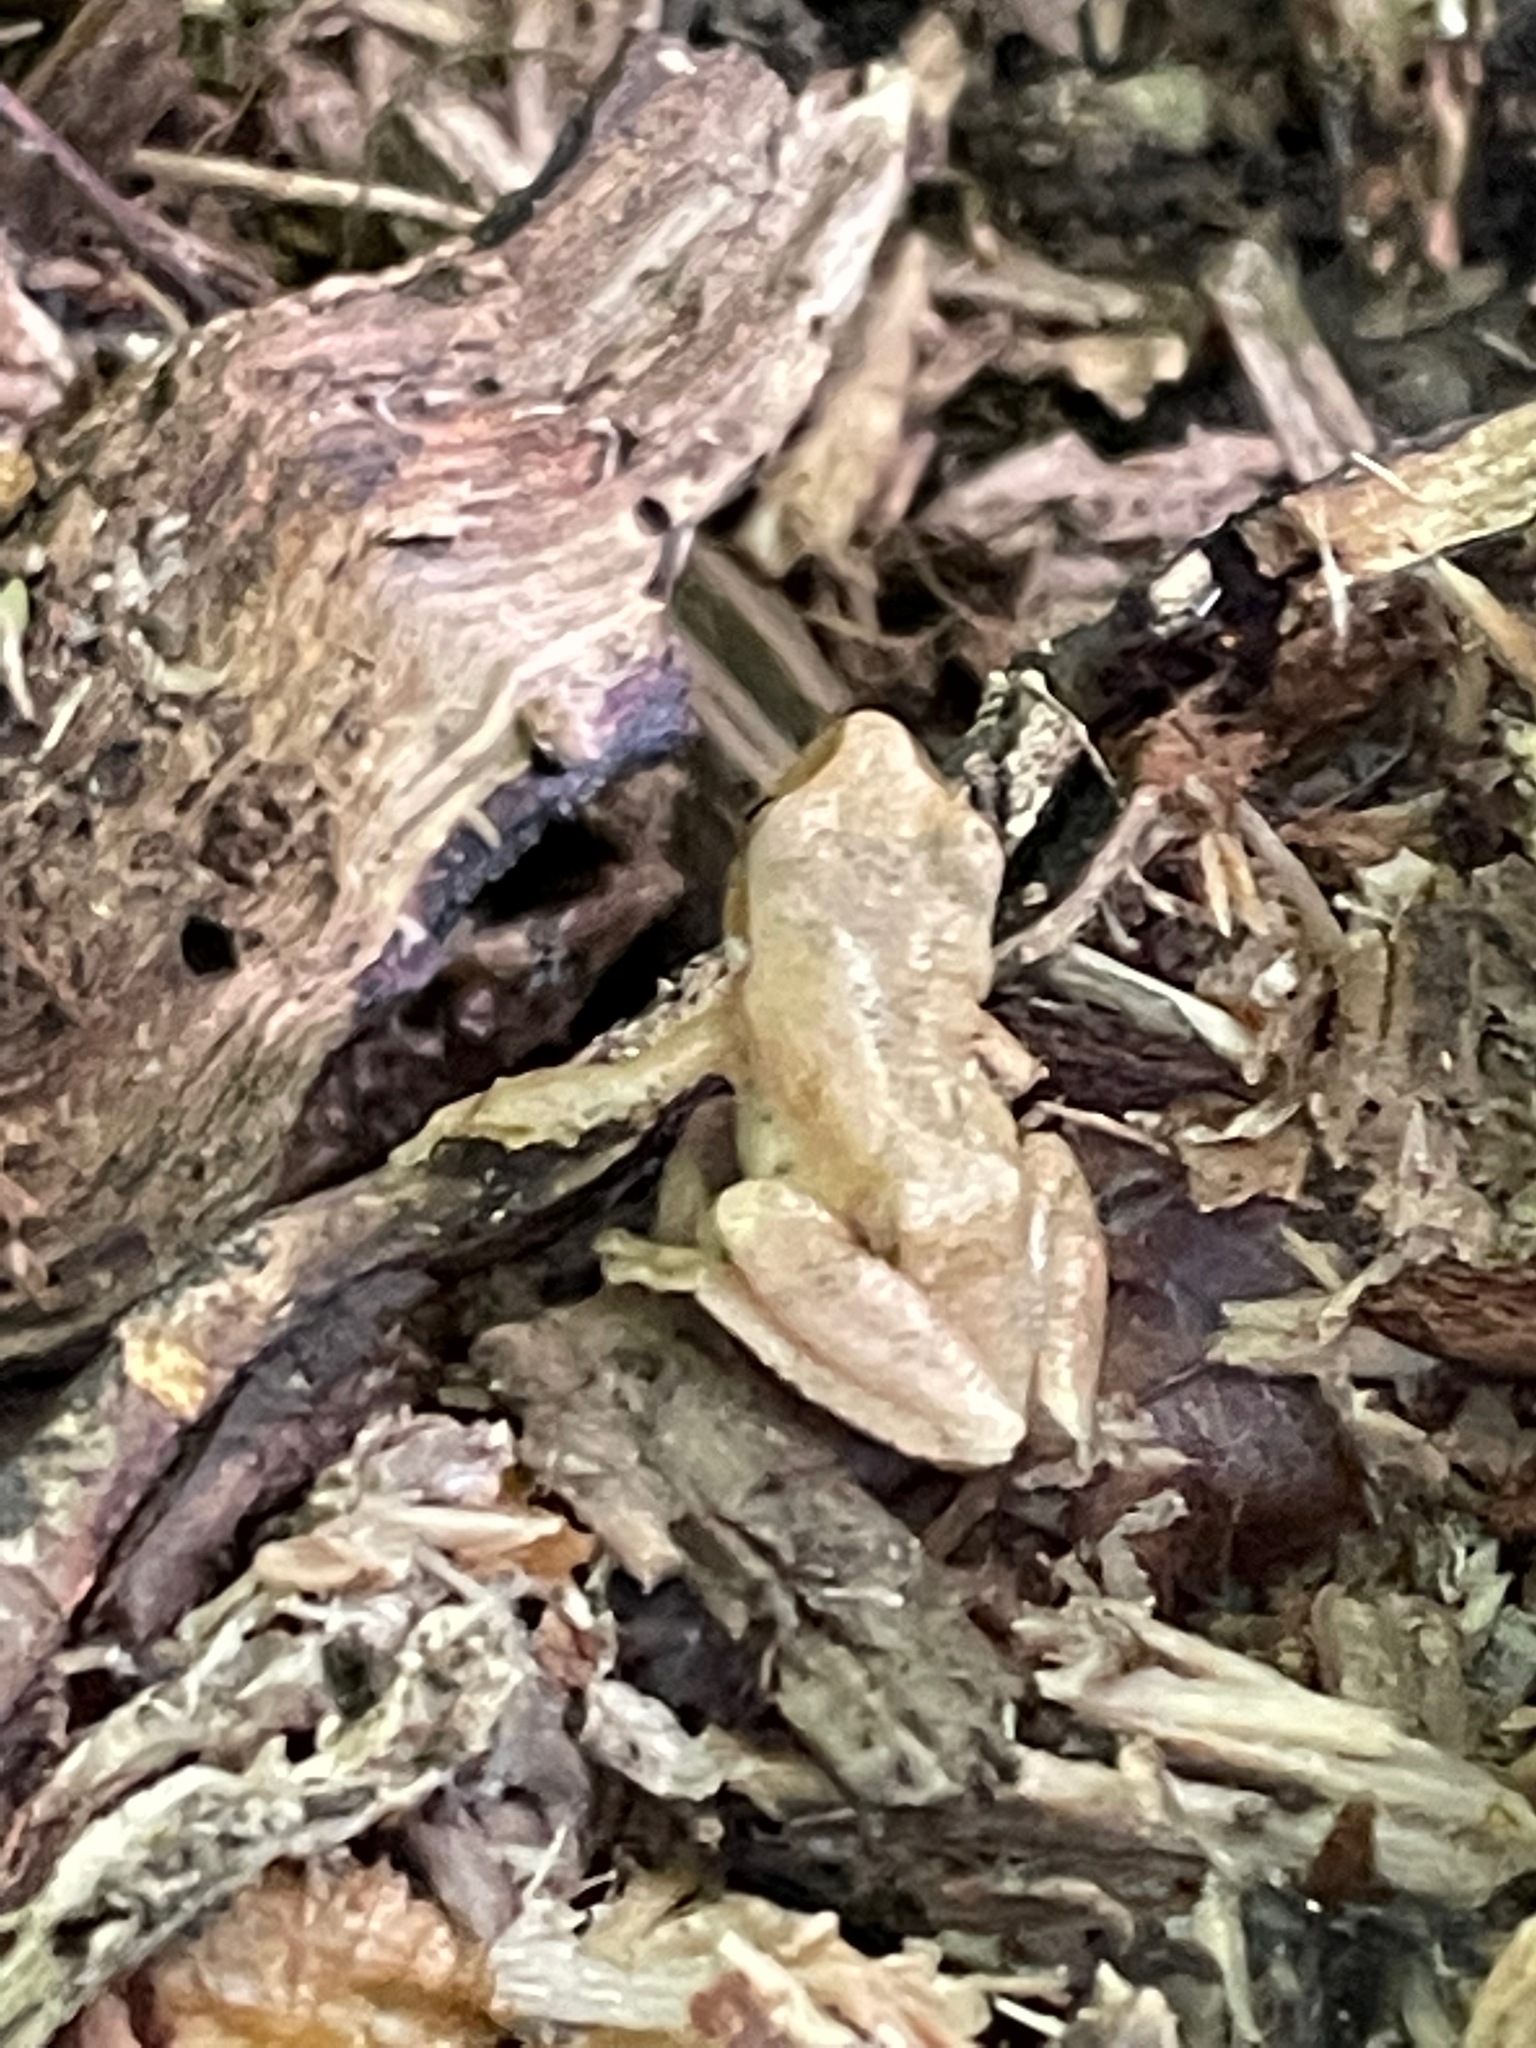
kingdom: Animalia
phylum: Chordata
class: Amphibia
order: Anura
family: Hylidae
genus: Pseudacris
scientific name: Pseudacris crucifer
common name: Spring peeper
